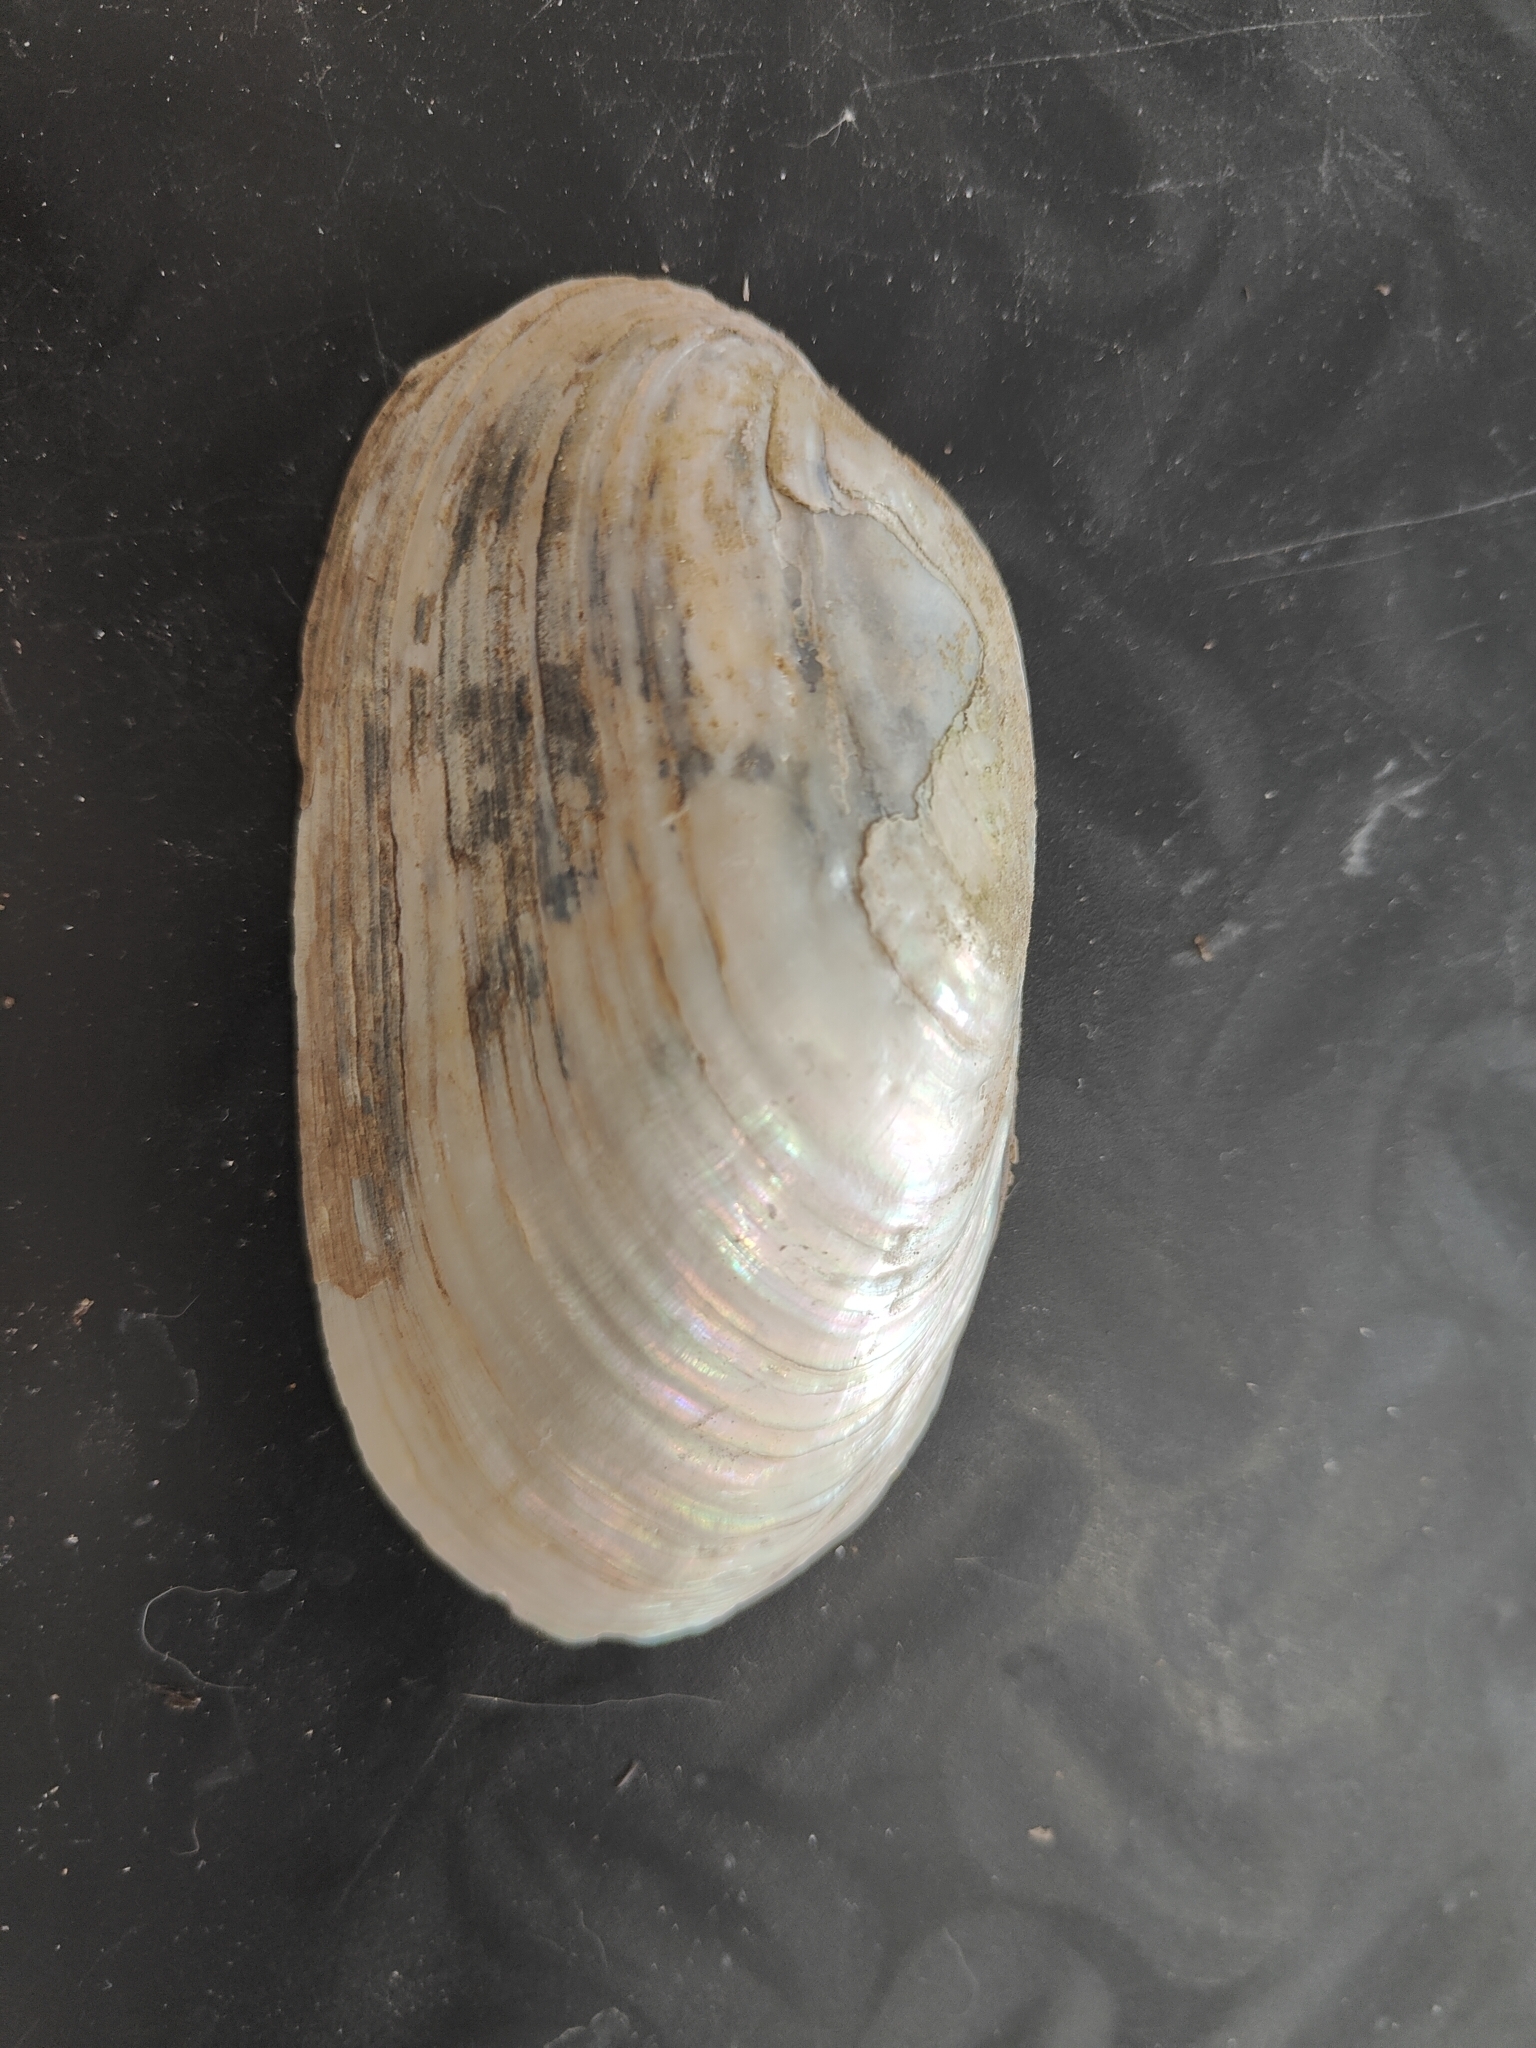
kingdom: Animalia
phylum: Mollusca
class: Bivalvia
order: Unionida
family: Unionidae
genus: Lampsilis
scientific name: Lampsilis siliquoidea
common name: Fatmucket
